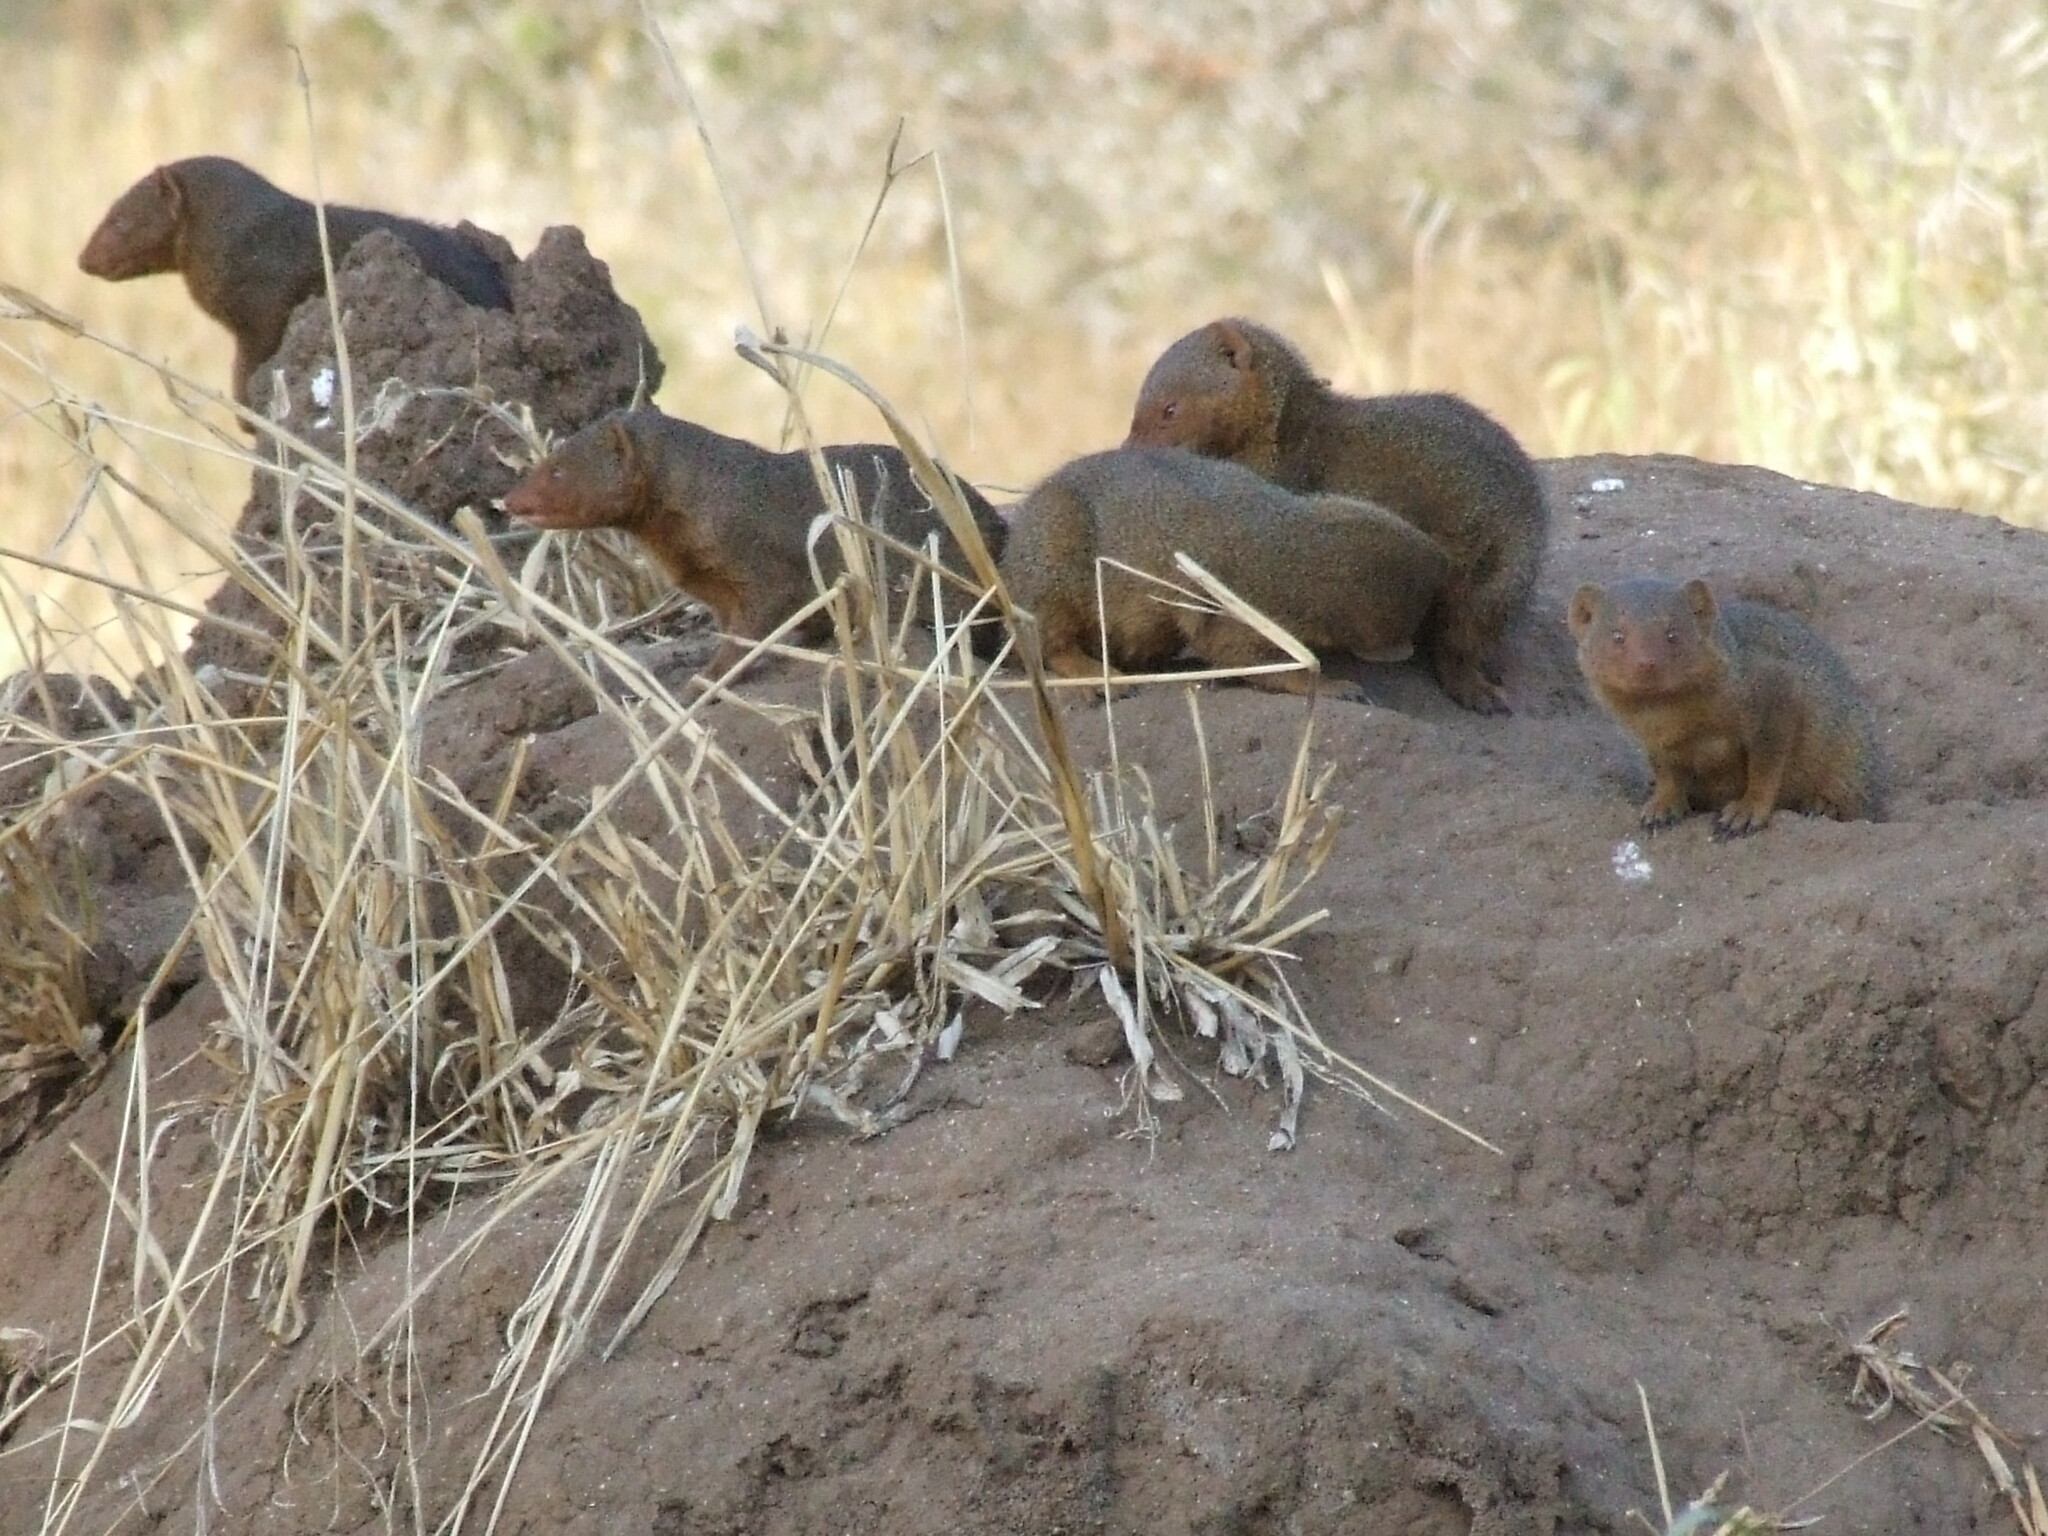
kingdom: Animalia
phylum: Chordata
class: Mammalia
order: Carnivora
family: Herpestidae
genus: Helogale
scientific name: Helogale parvula
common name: Common dwarf mongoose
